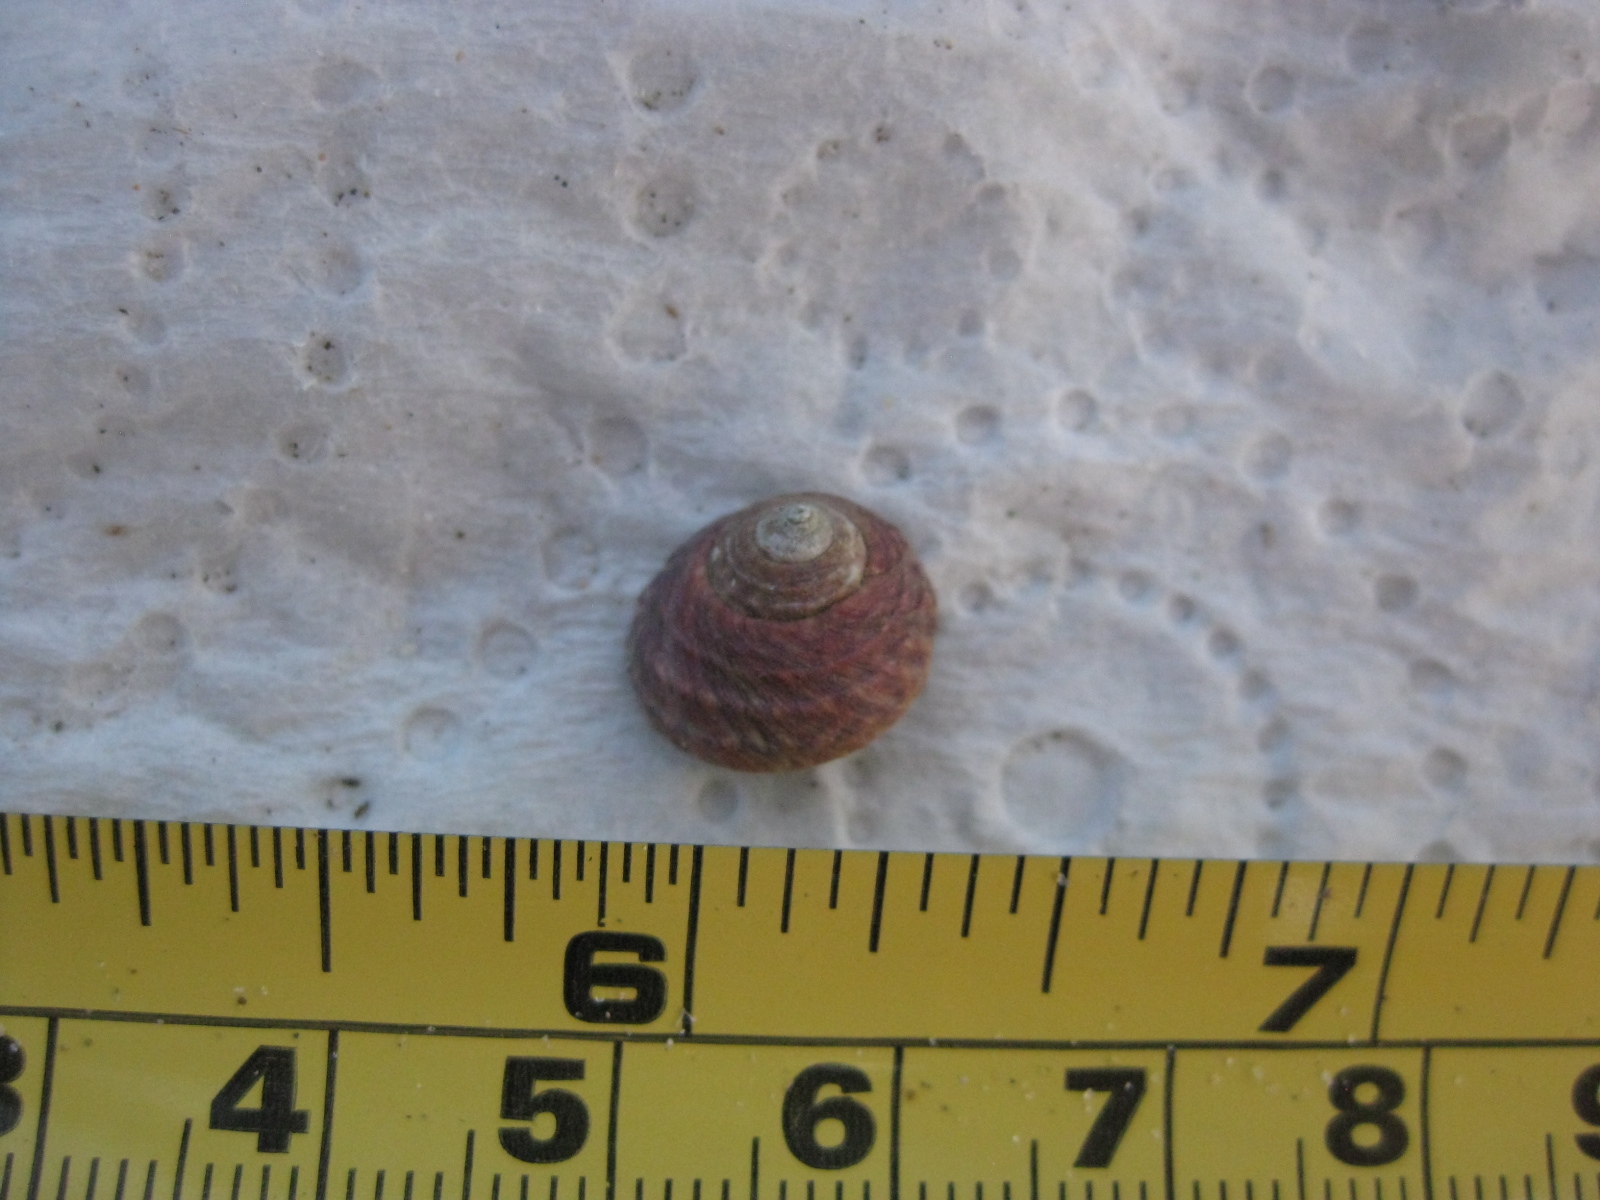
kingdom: Animalia
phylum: Mollusca
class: Gastropoda
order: Trochida
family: Trochidae
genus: Diloma
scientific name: Diloma subrostratum
